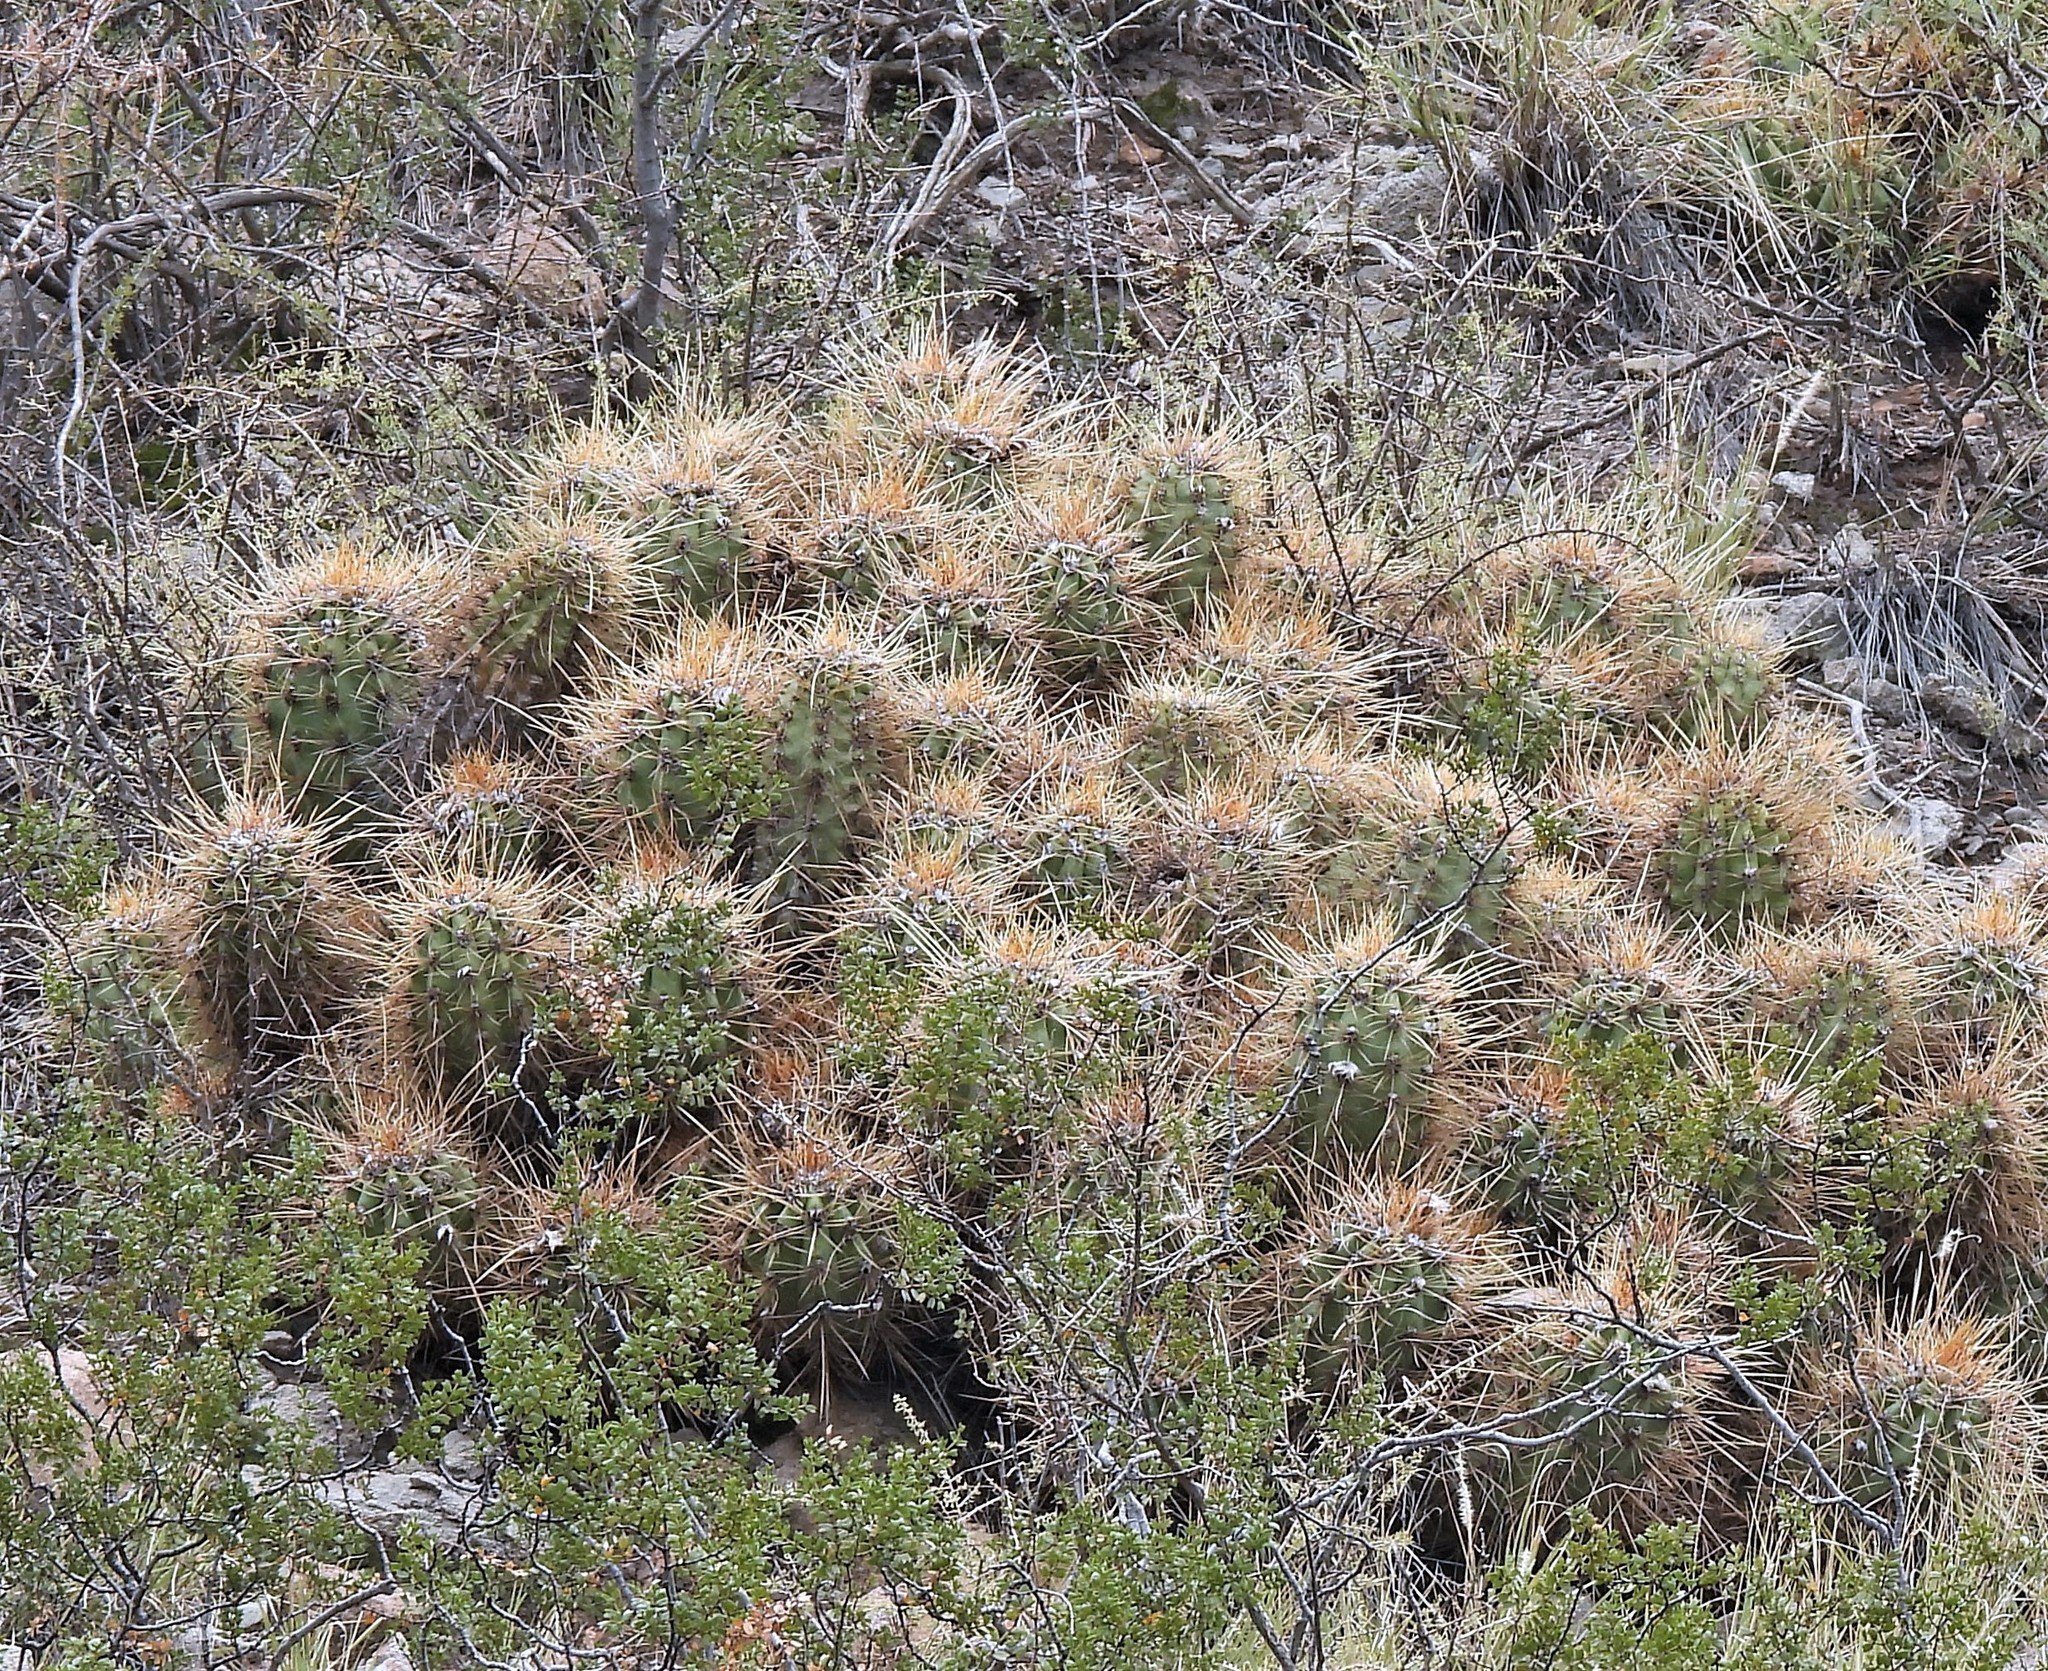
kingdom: Plantae
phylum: Tracheophyta
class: Magnoliopsida
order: Caryophyllales
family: Cactaceae
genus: Soehrensia
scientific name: Soehrensia candicans
